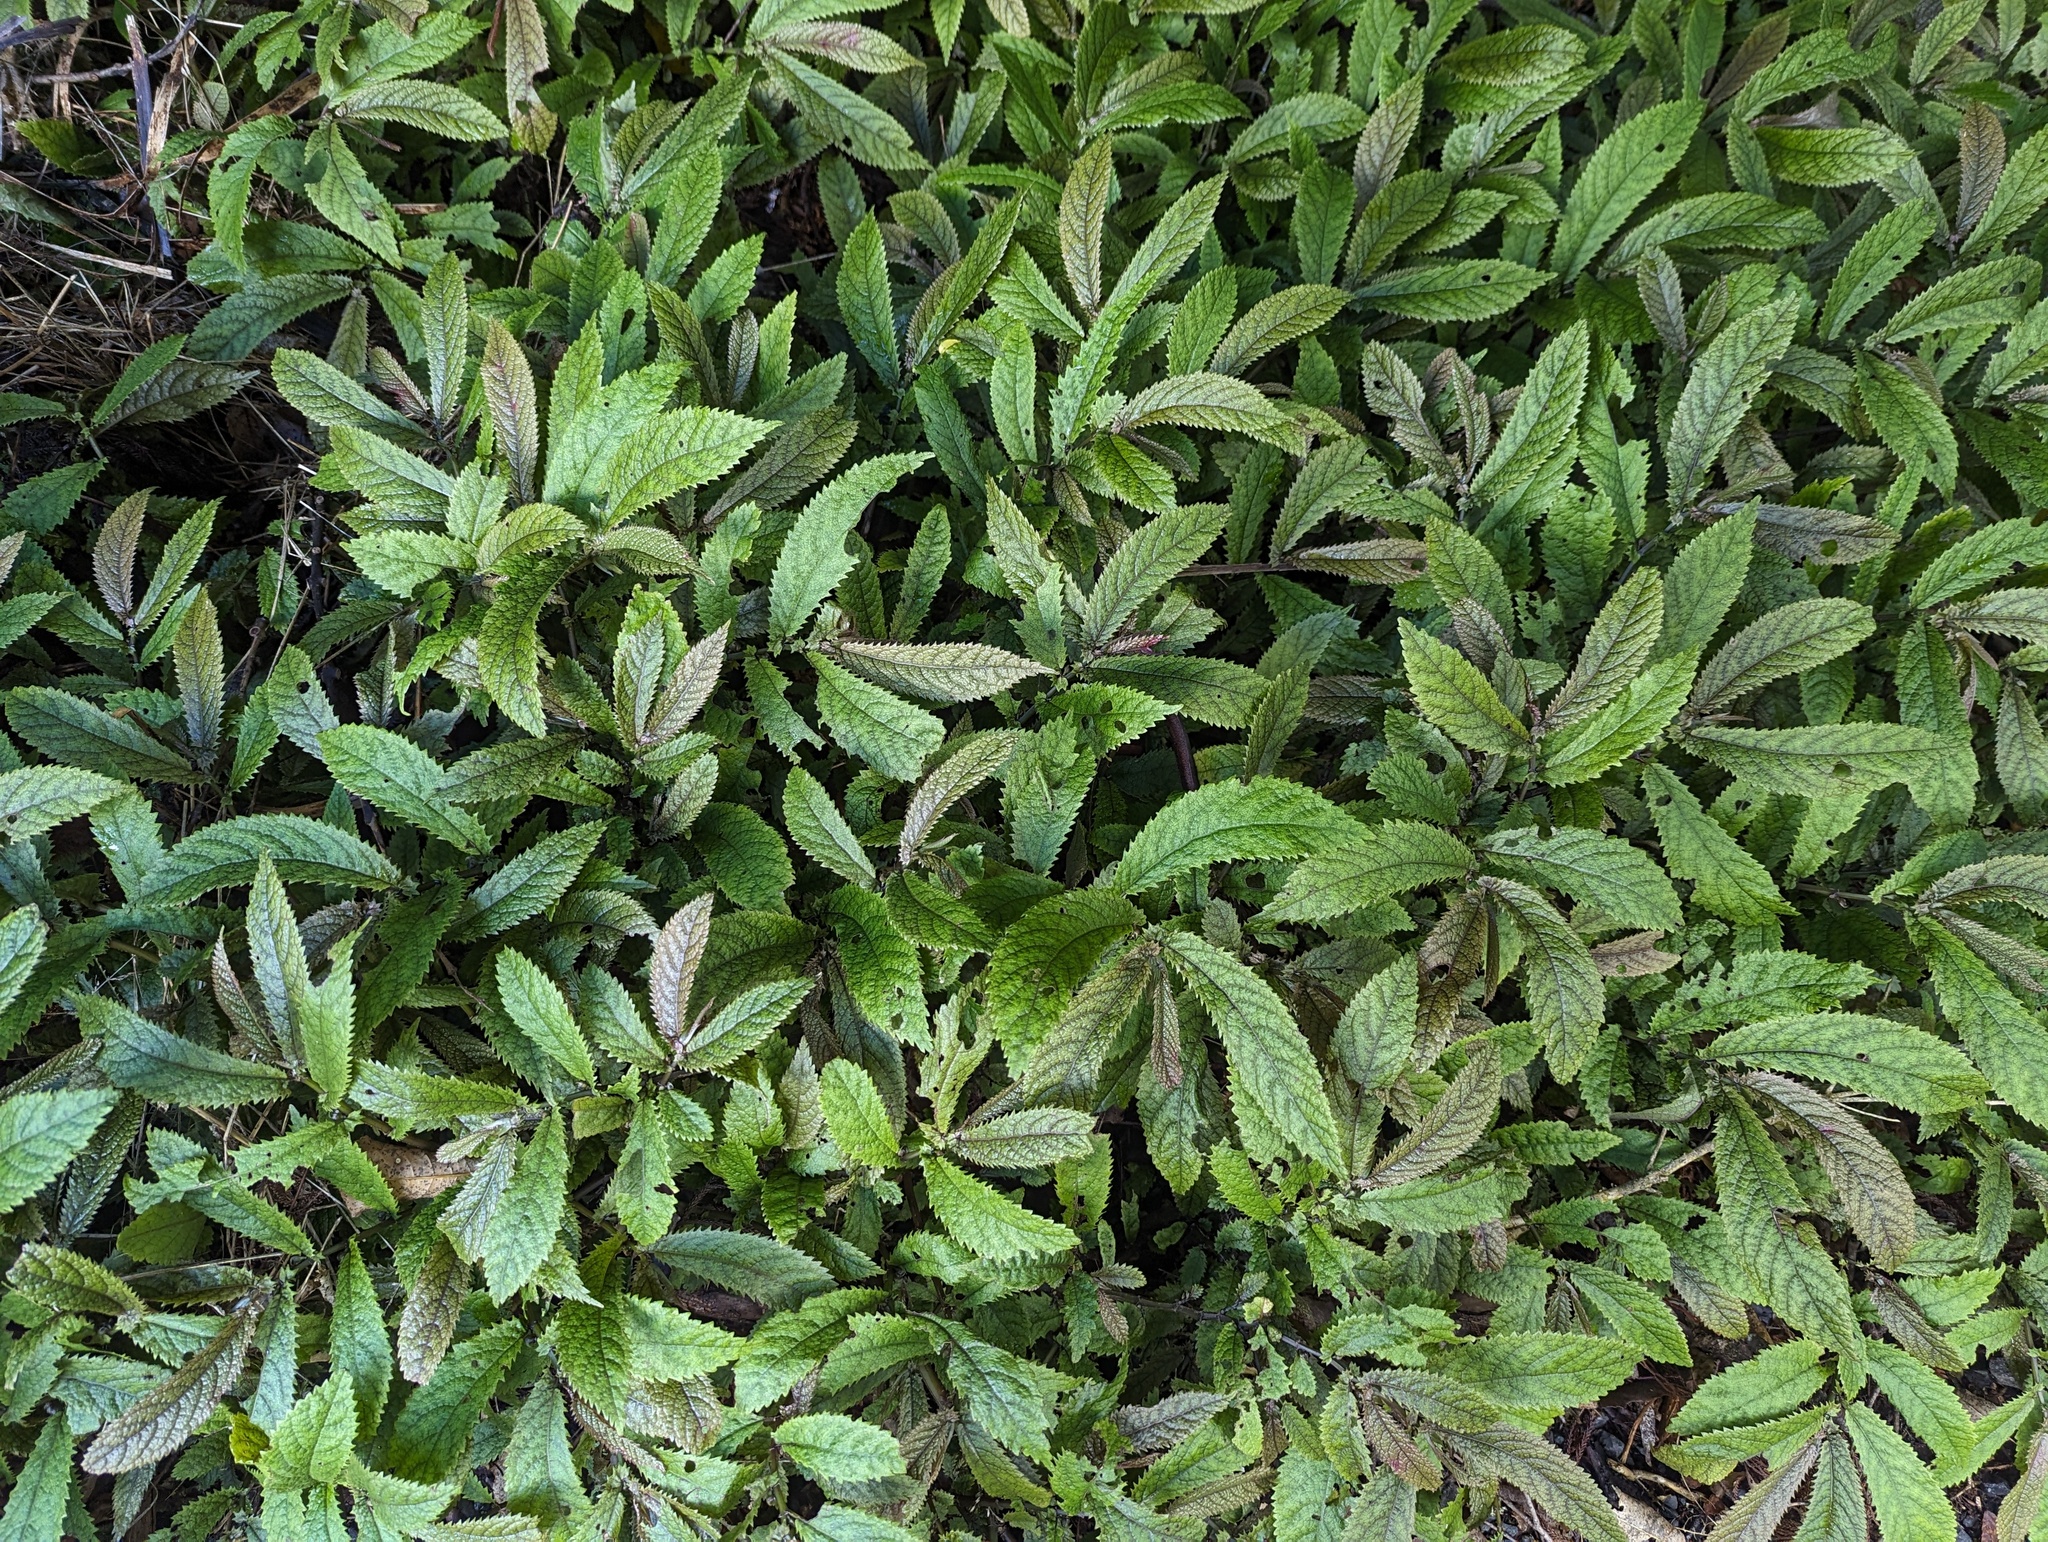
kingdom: Plantae
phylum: Tracheophyta
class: Magnoliopsida
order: Rosales
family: Urticaceae
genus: Elatostema
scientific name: Elatostema rugosum
